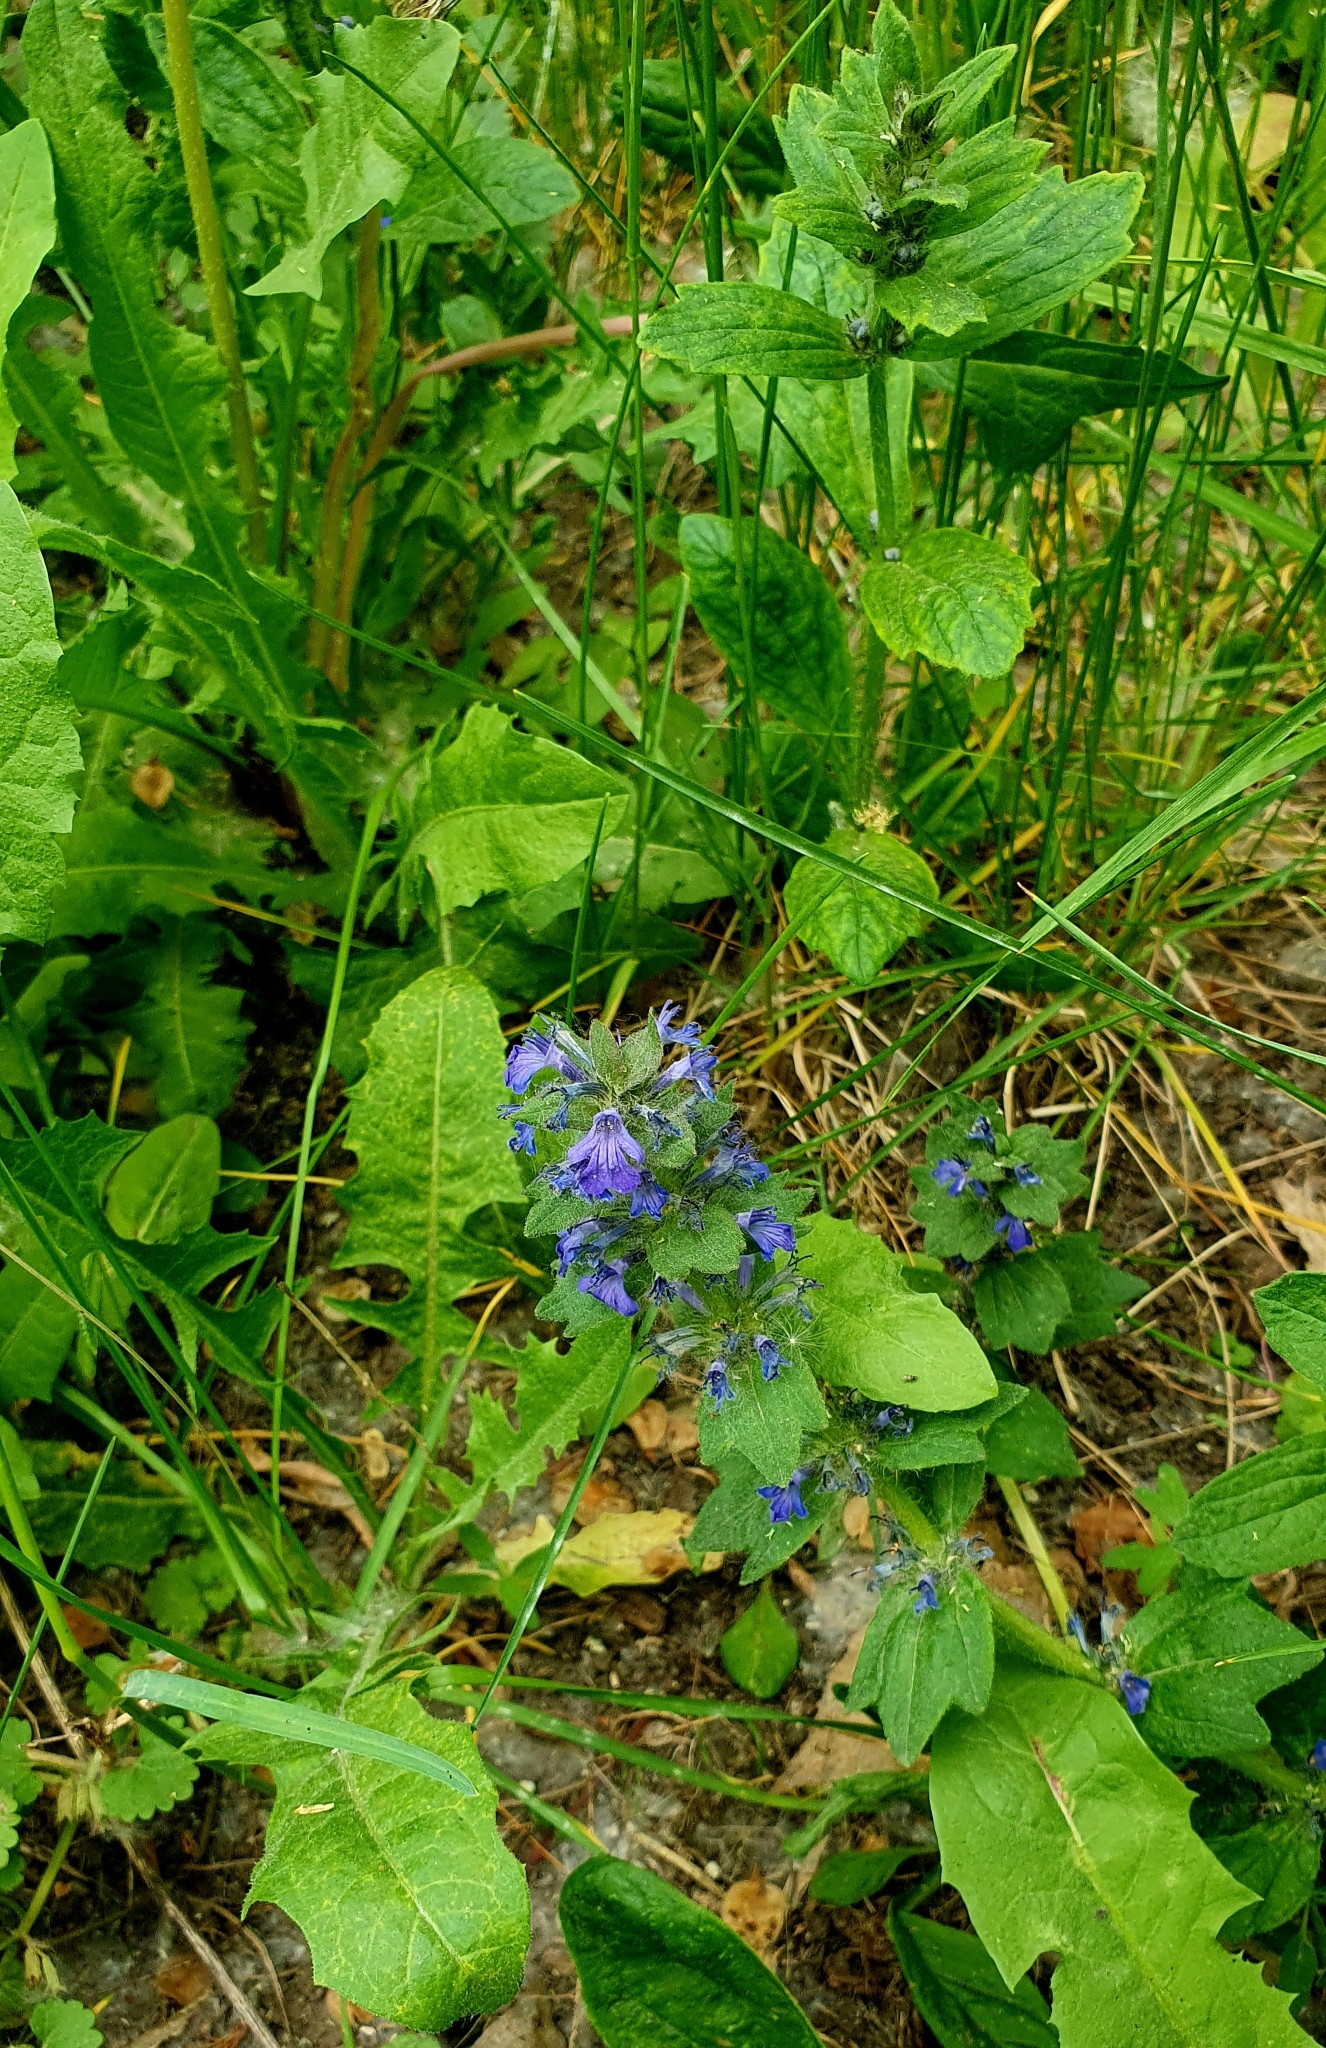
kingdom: Plantae
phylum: Tracheophyta
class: Magnoliopsida
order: Lamiales
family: Lamiaceae
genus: Ajuga
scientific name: Ajuga genevensis
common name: Blue bugle
